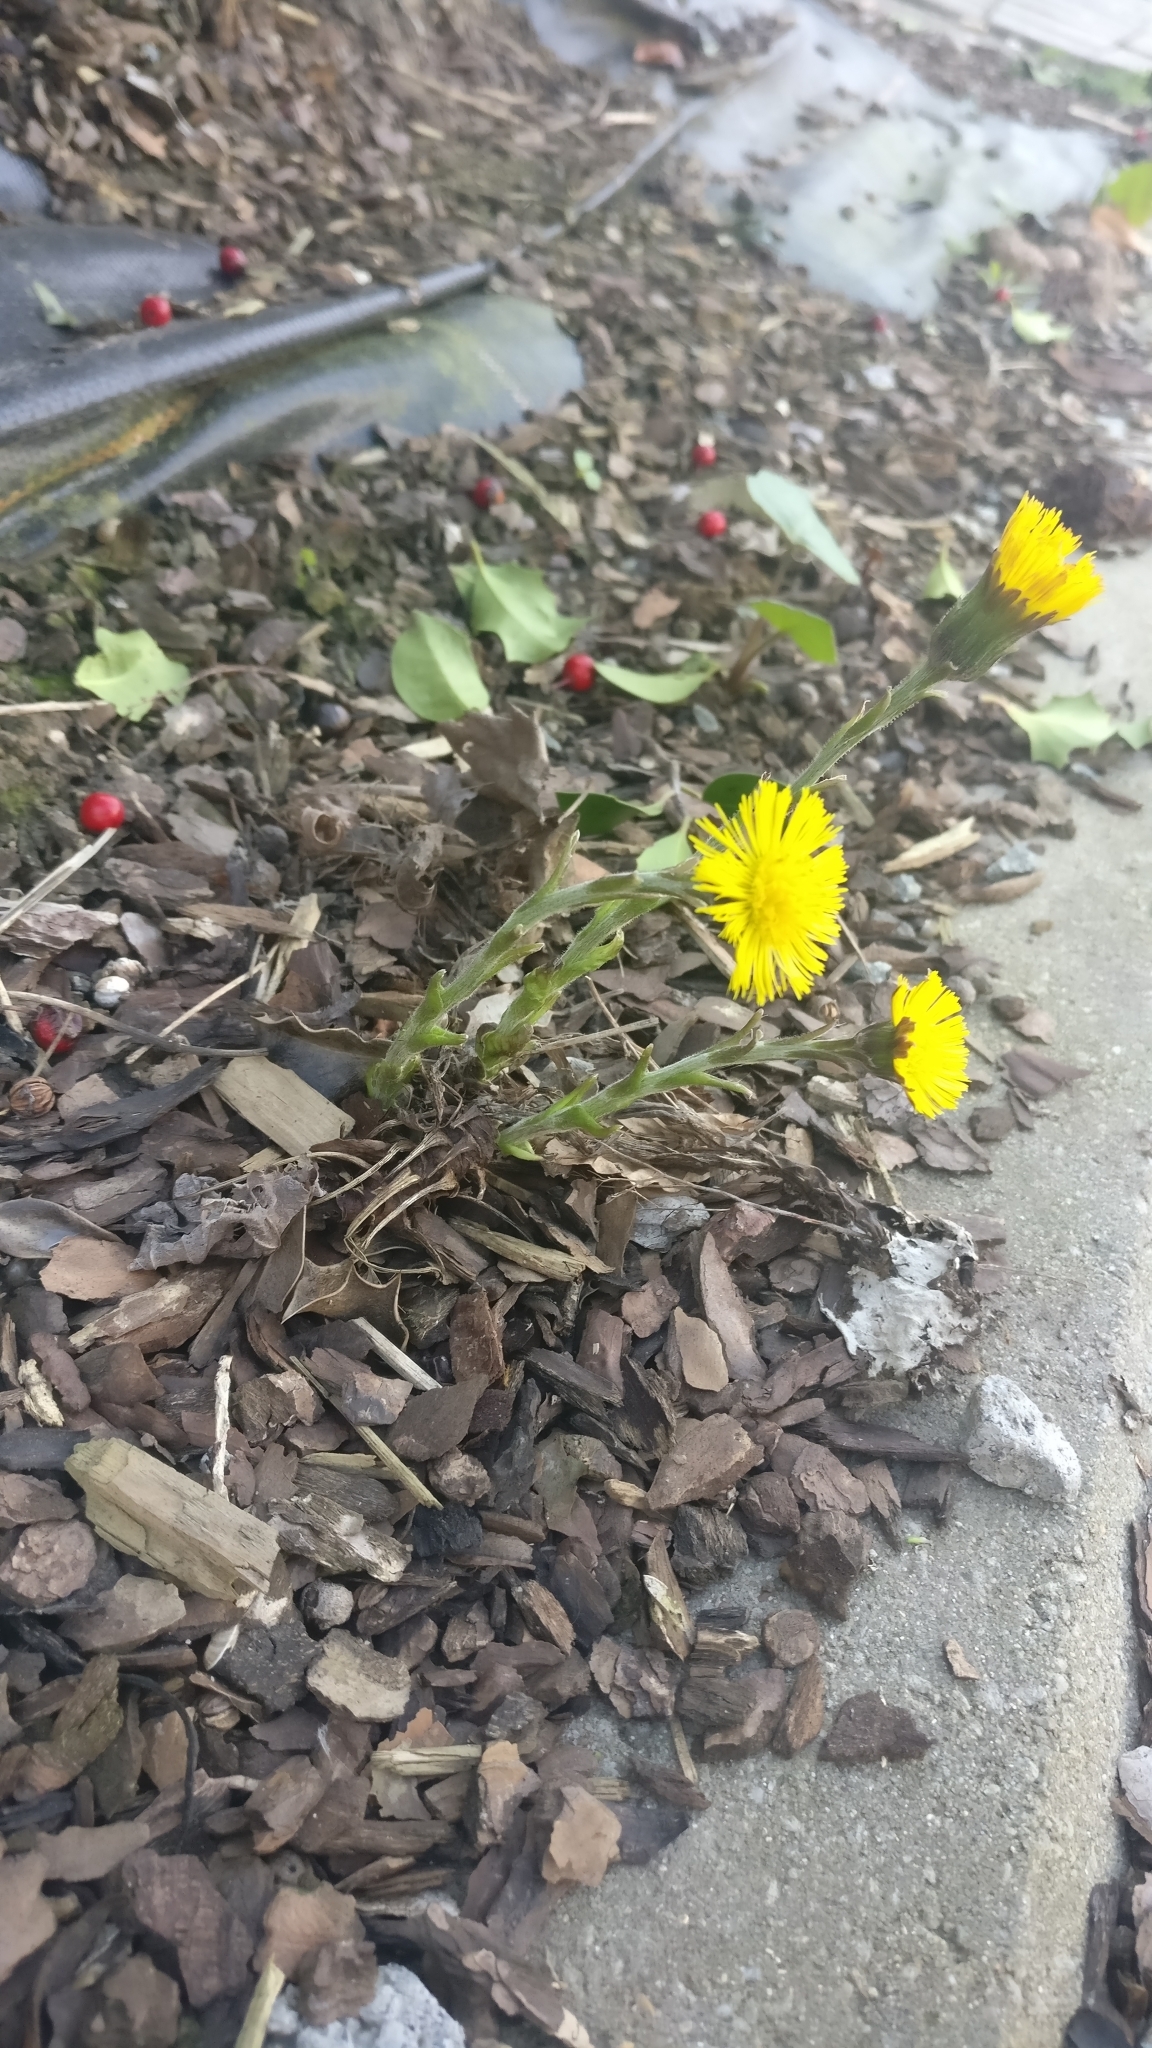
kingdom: Plantae
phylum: Tracheophyta
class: Magnoliopsida
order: Asterales
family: Asteraceae
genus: Tussilago
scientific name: Tussilago farfara
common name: Coltsfoot
